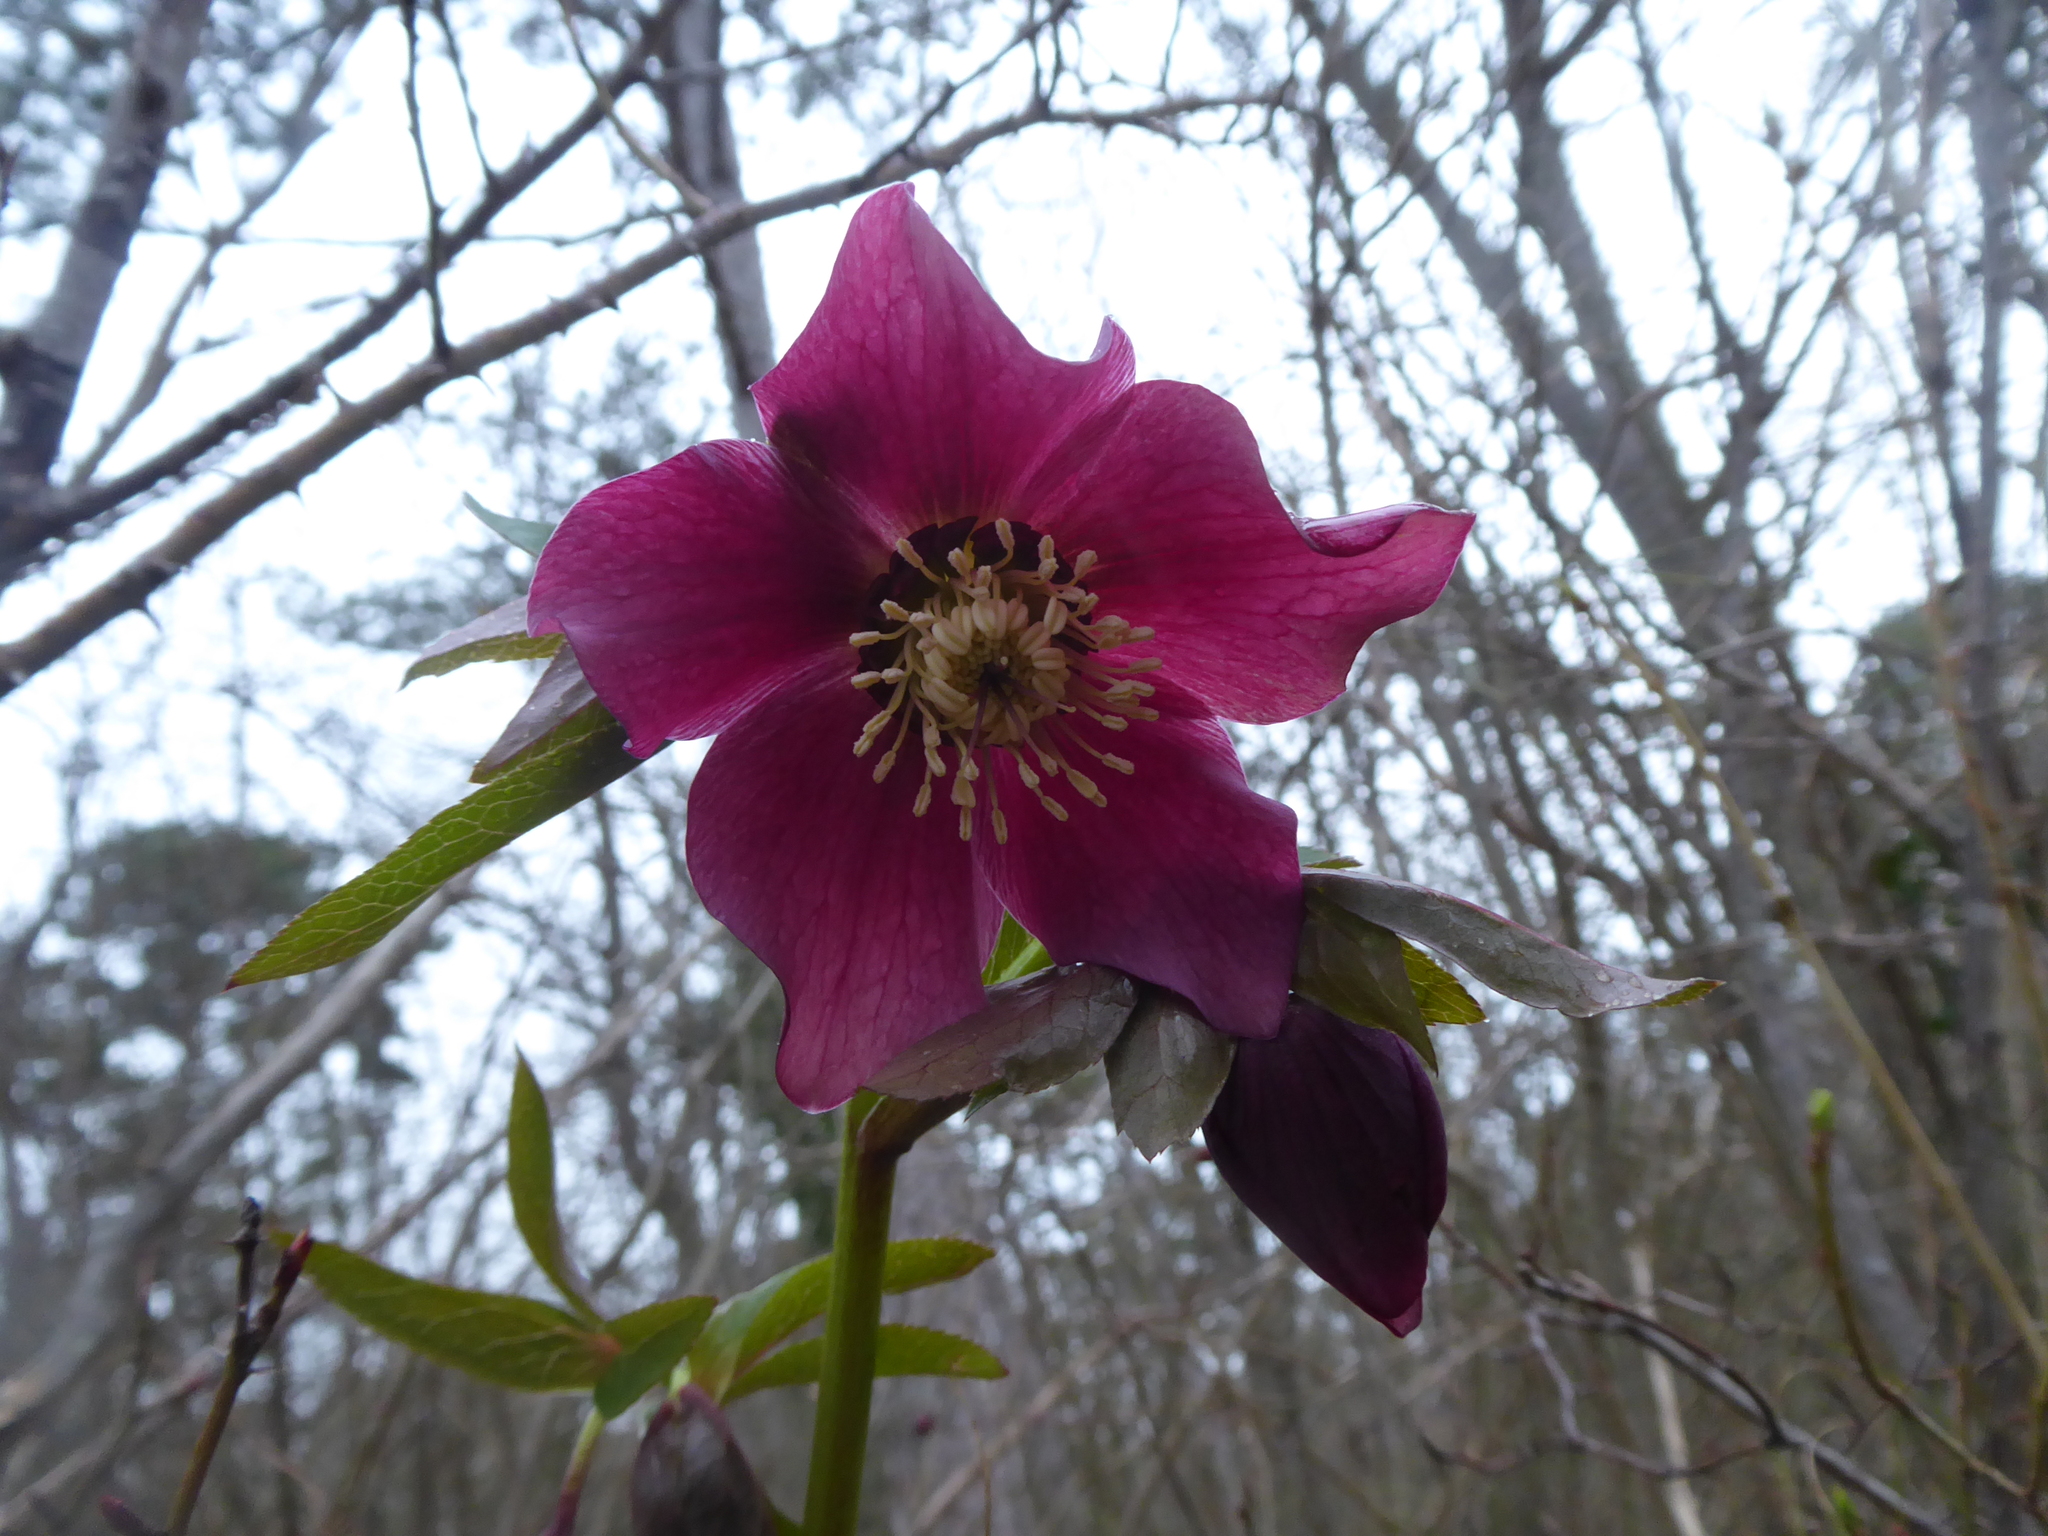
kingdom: Plantae
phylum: Tracheophyta
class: Magnoliopsida
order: Ranunculales
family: Ranunculaceae
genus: Helleborus
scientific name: Helleborus hybridus
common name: Hybrid lenten-rose
